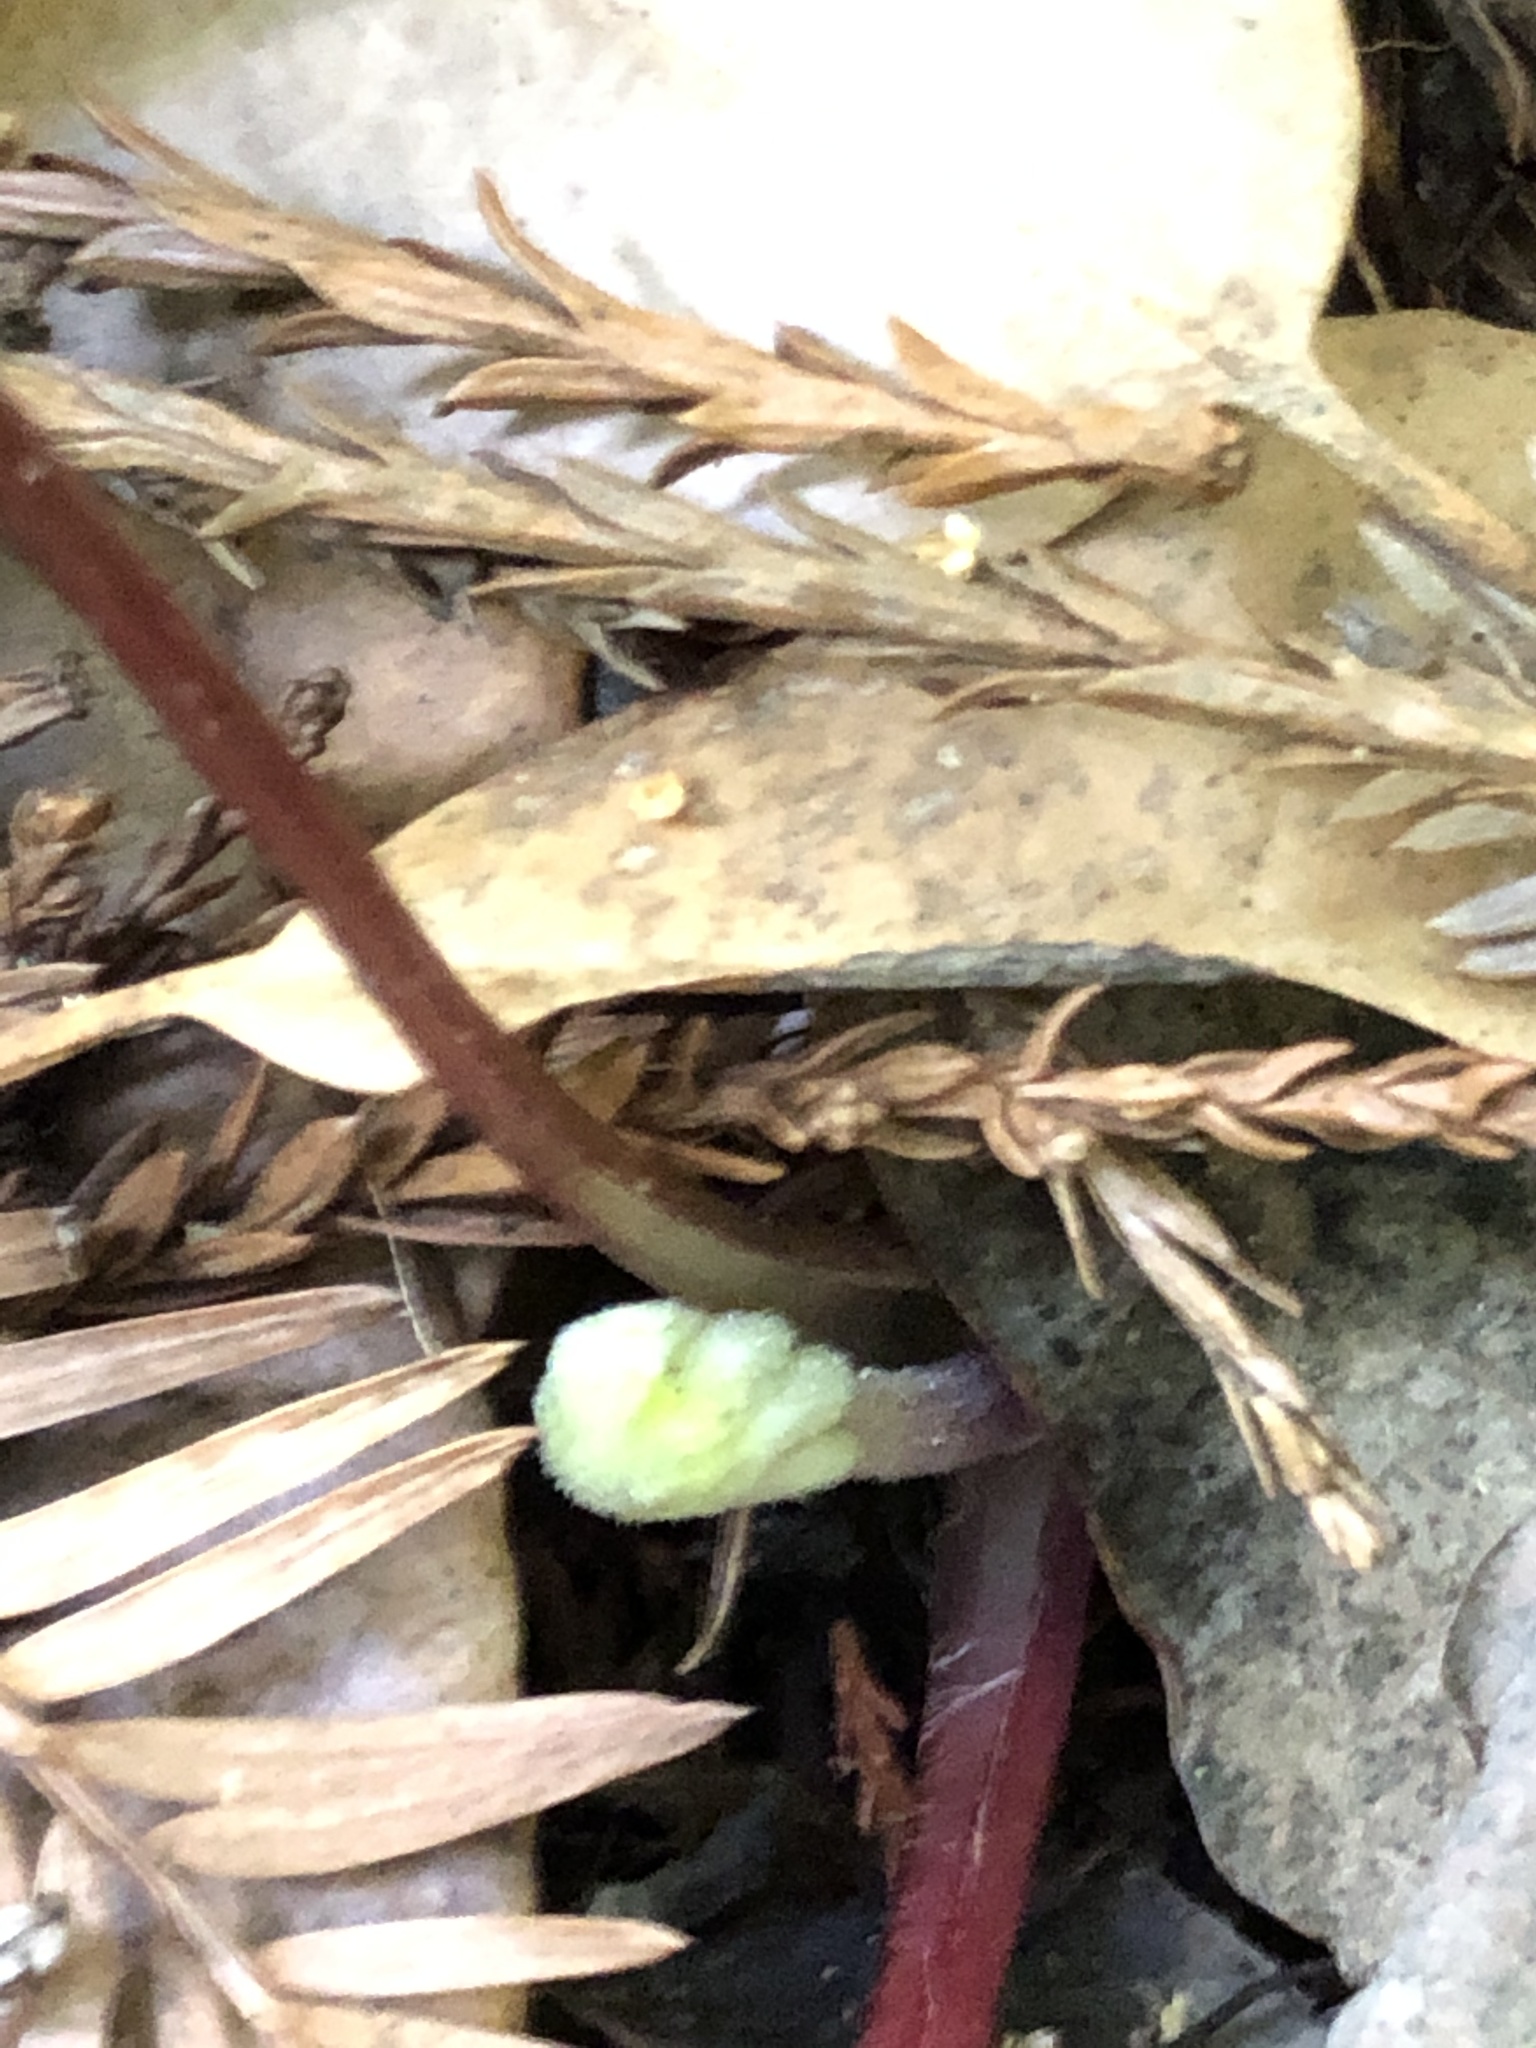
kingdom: Plantae
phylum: Tracheophyta
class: Magnoliopsida
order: Asterales
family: Asteraceae
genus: Petasites
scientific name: Petasites frigidus
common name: Arctic butterbur
